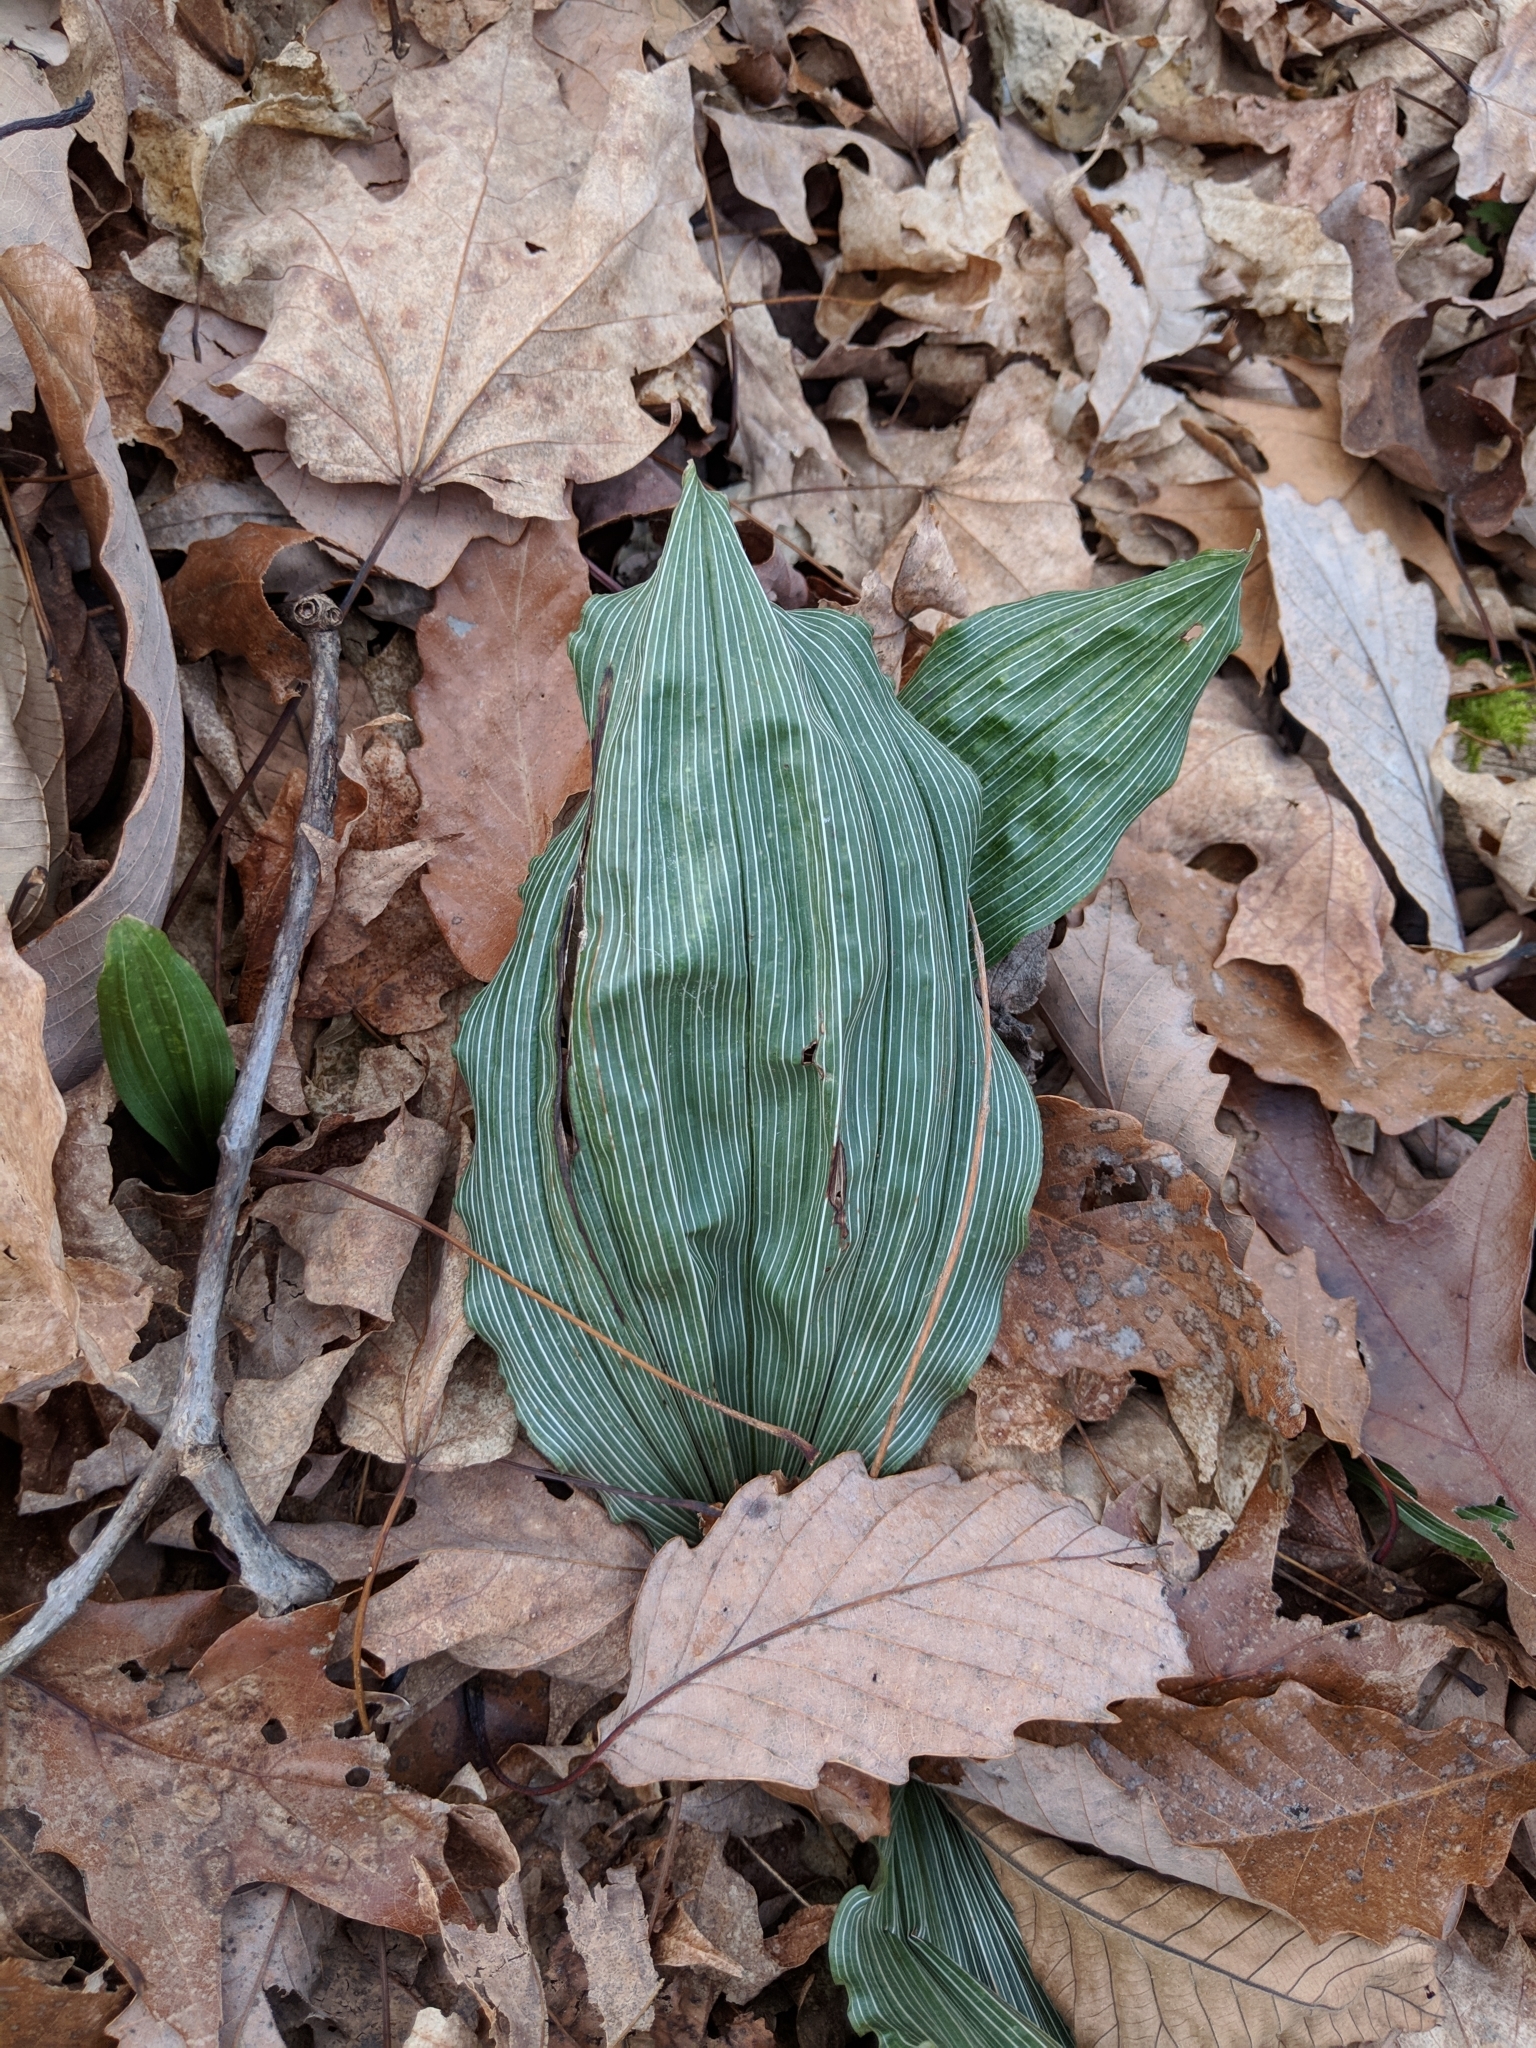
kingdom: Plantae
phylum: Tracheophyta
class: Liliopsida
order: Asparagales
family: Orchidaceae
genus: Aplectrum
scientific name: Aplectrum hyemale
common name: Adam-and-eve
